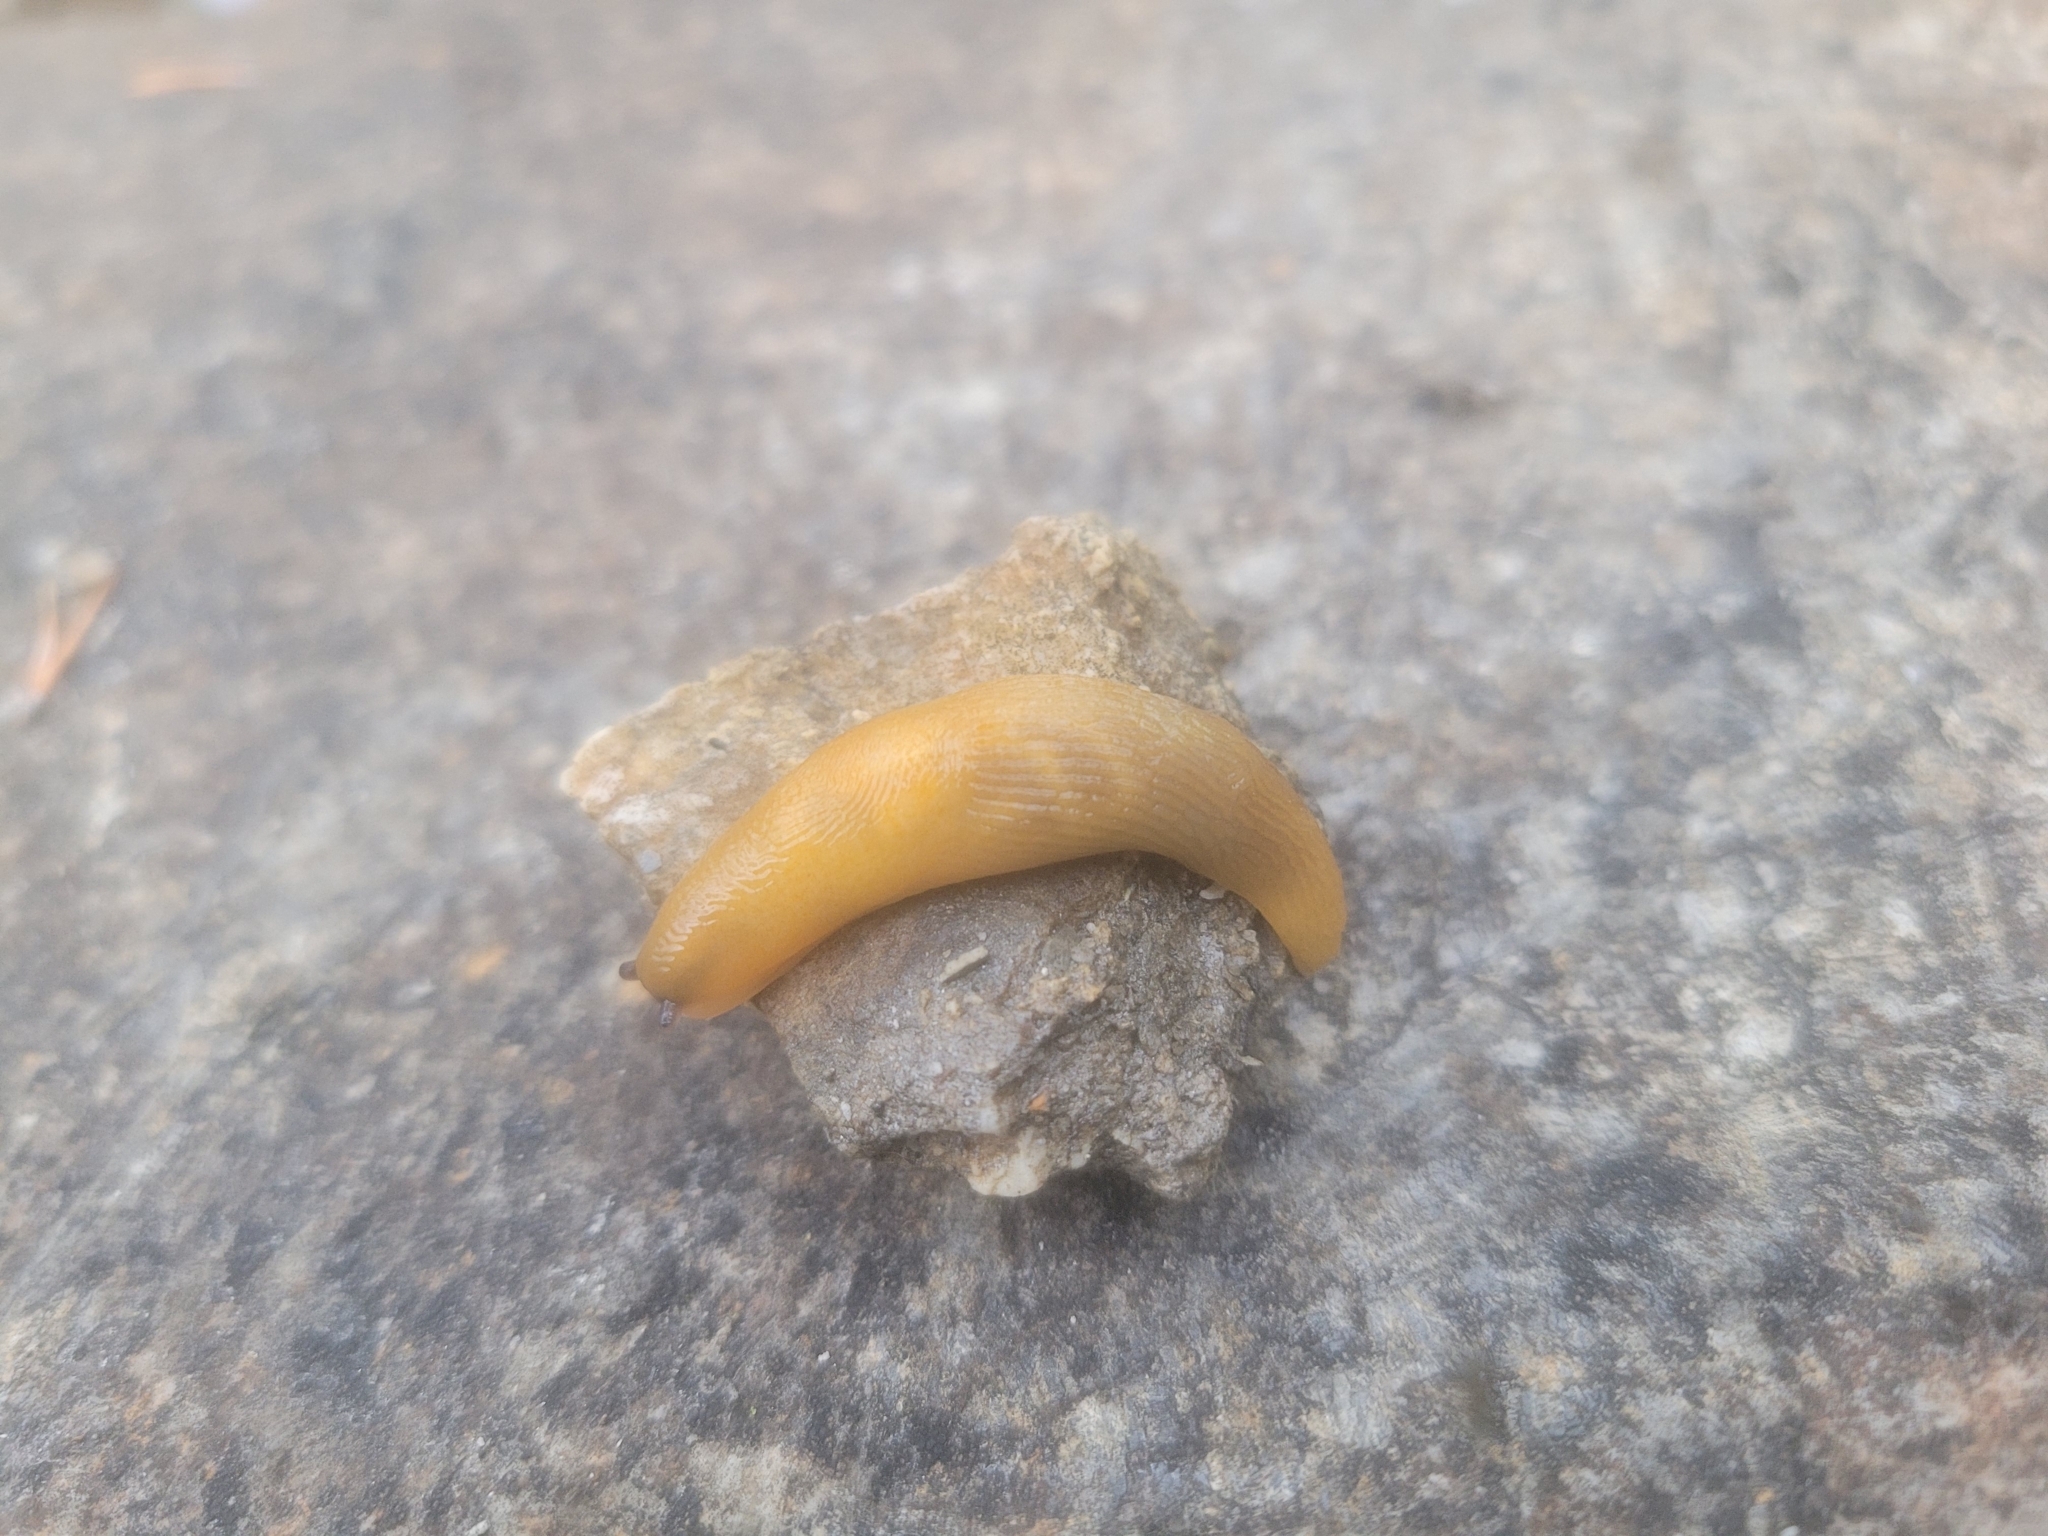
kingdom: Animalia
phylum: Mollusca
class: Gastropoda
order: Stylommatophora
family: Limacidae
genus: Malacolimax
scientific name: Malacolimax tenellus
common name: Lemon slug
